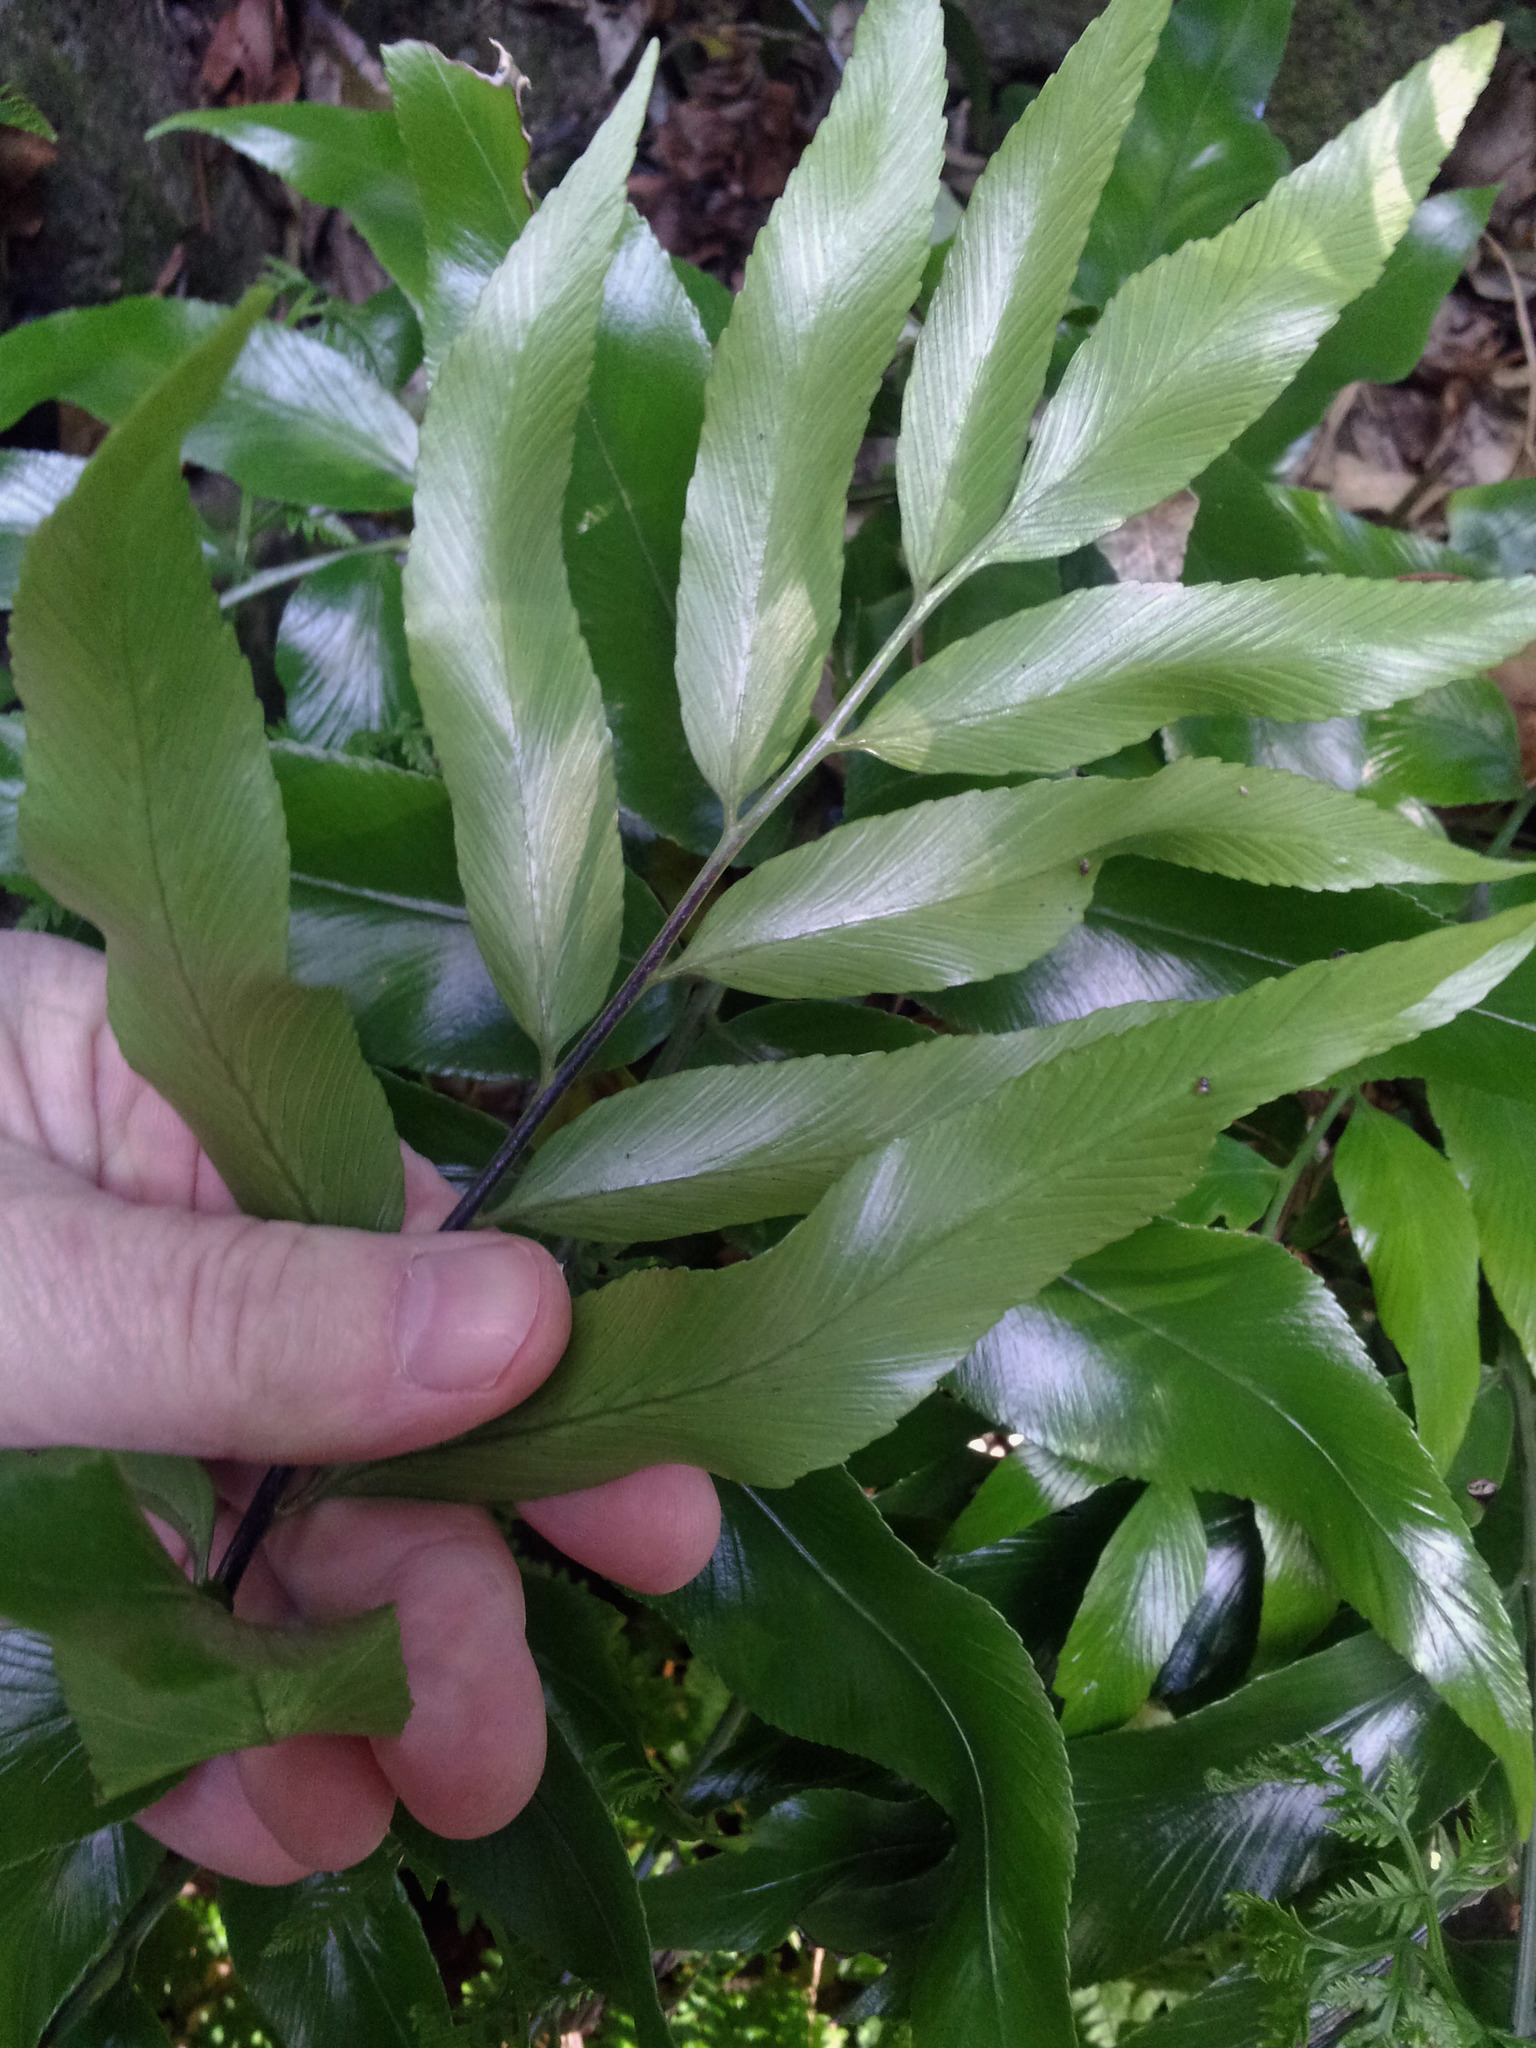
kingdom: Plantae
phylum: Tracheophyta
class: Polypodiopsida
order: Polypodiales
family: Aspleniaceae
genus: Asplenium
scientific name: Asplenium oblongifolium
